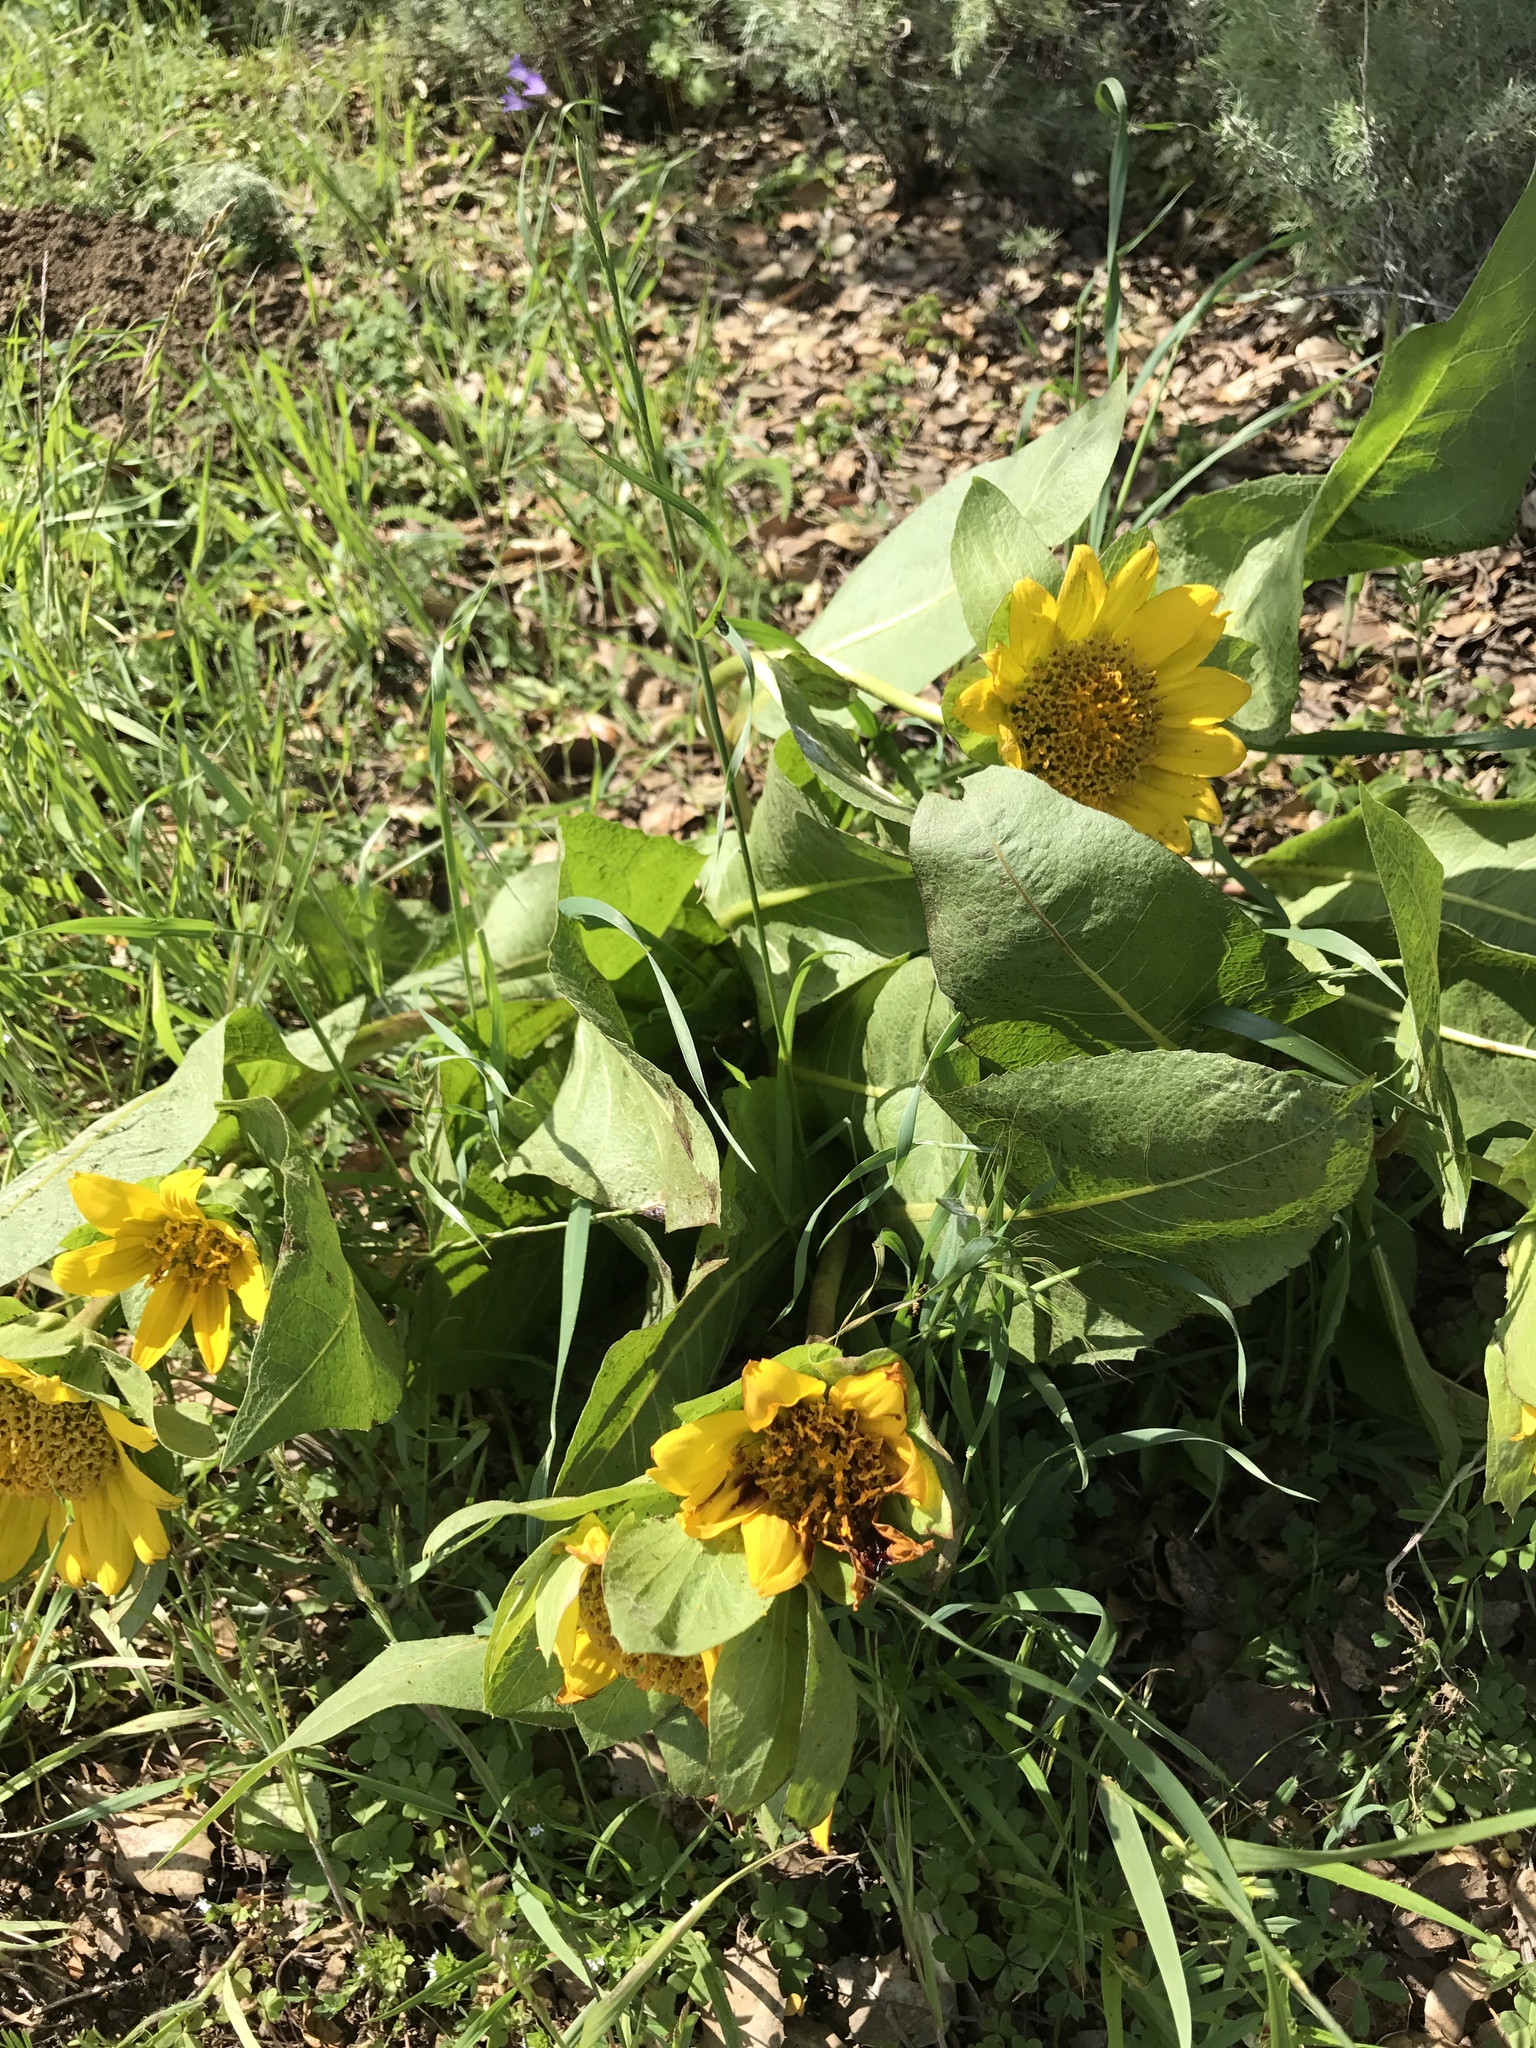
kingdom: Plantae
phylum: Tracheophyta
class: Magnoliopsida
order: Asterales
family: Asteraceae
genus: Wyethia
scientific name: Wyethia glabra
